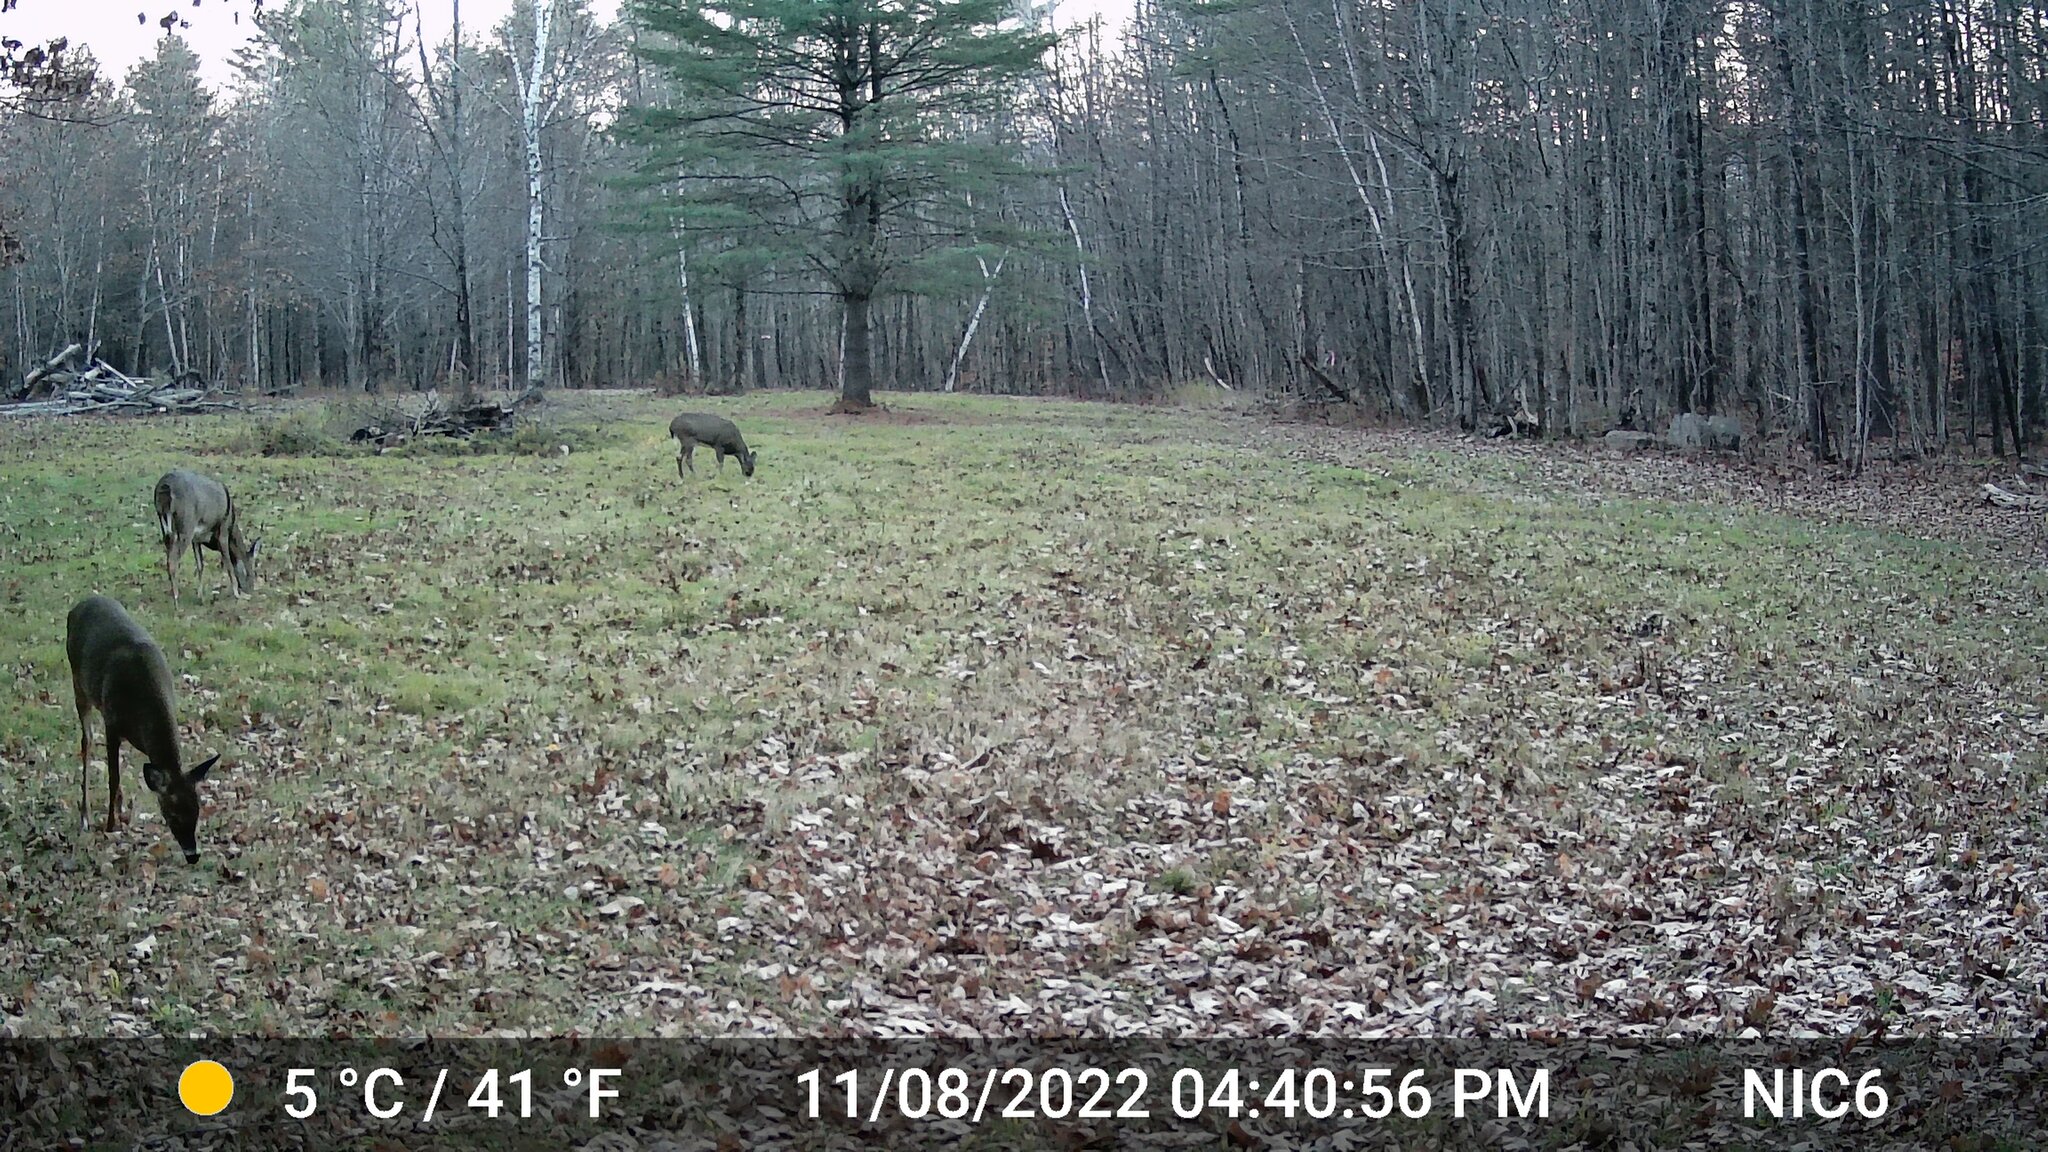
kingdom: Animalia
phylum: Chordata
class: Mammalia
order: Artiodactyla
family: Cervidae
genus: Odocoileus
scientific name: Odocoileus virginianus
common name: White-tailed deer
